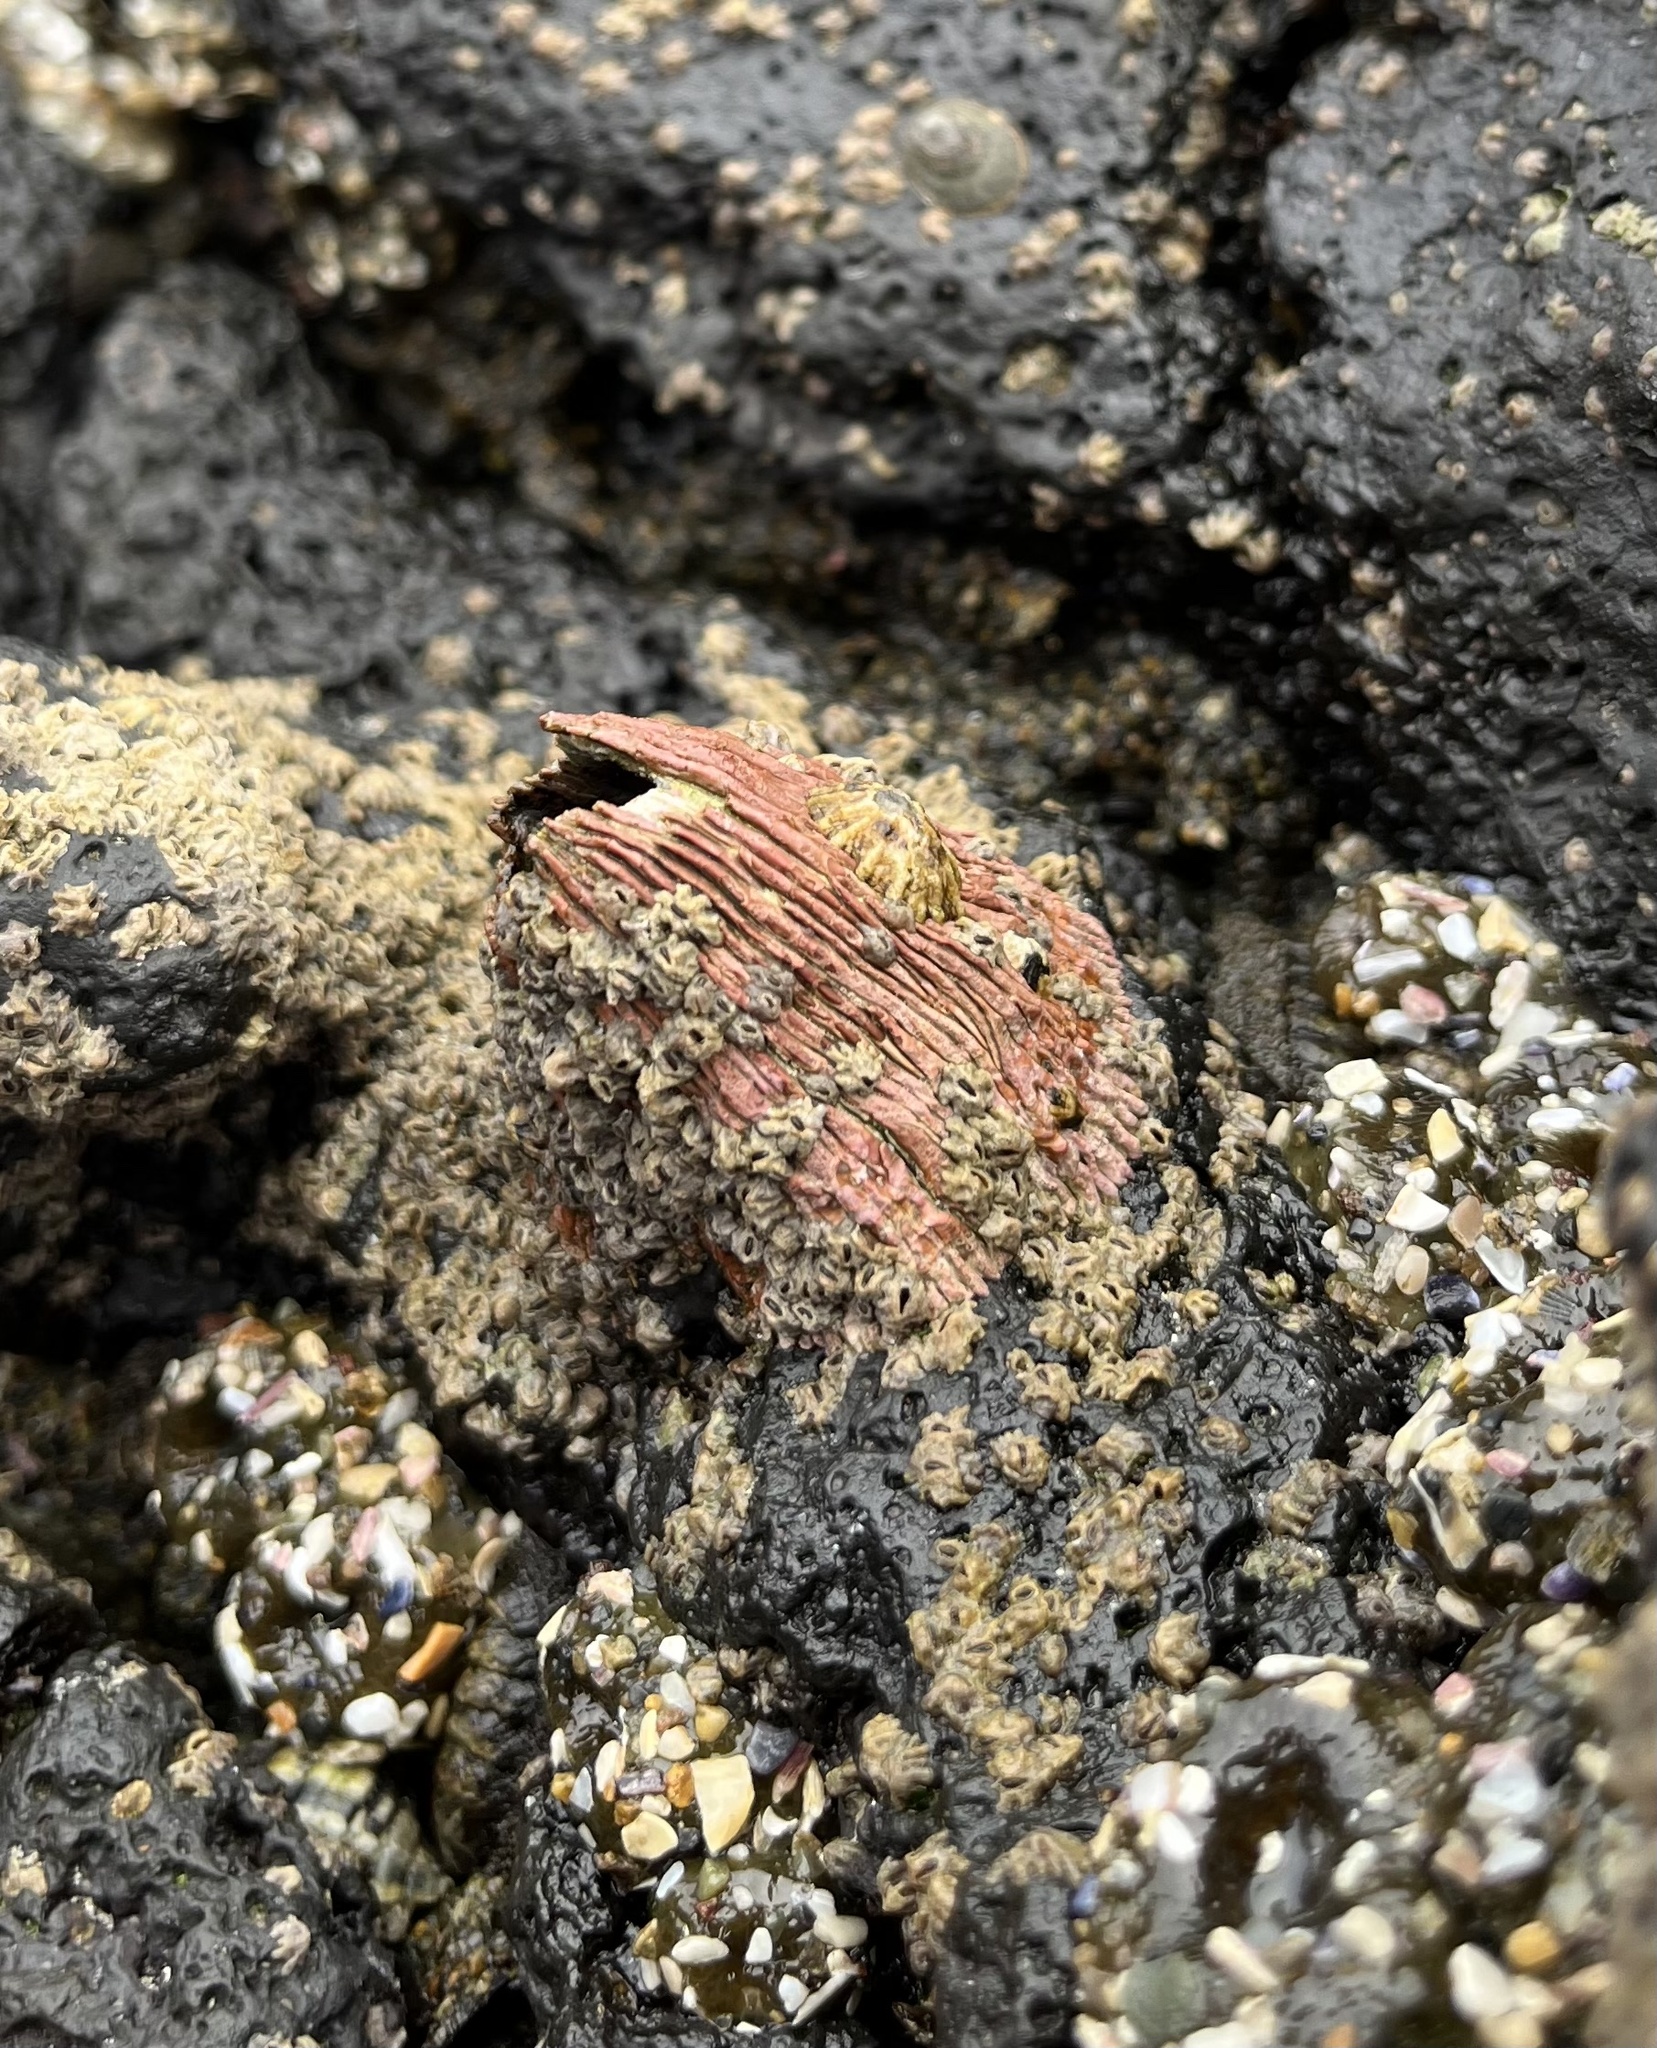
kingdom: Animalia
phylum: Arthropoda
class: Maxillopoda
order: Sessilia
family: Tetraclitidae
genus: Tetraclita
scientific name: Tetraclita rubescens
